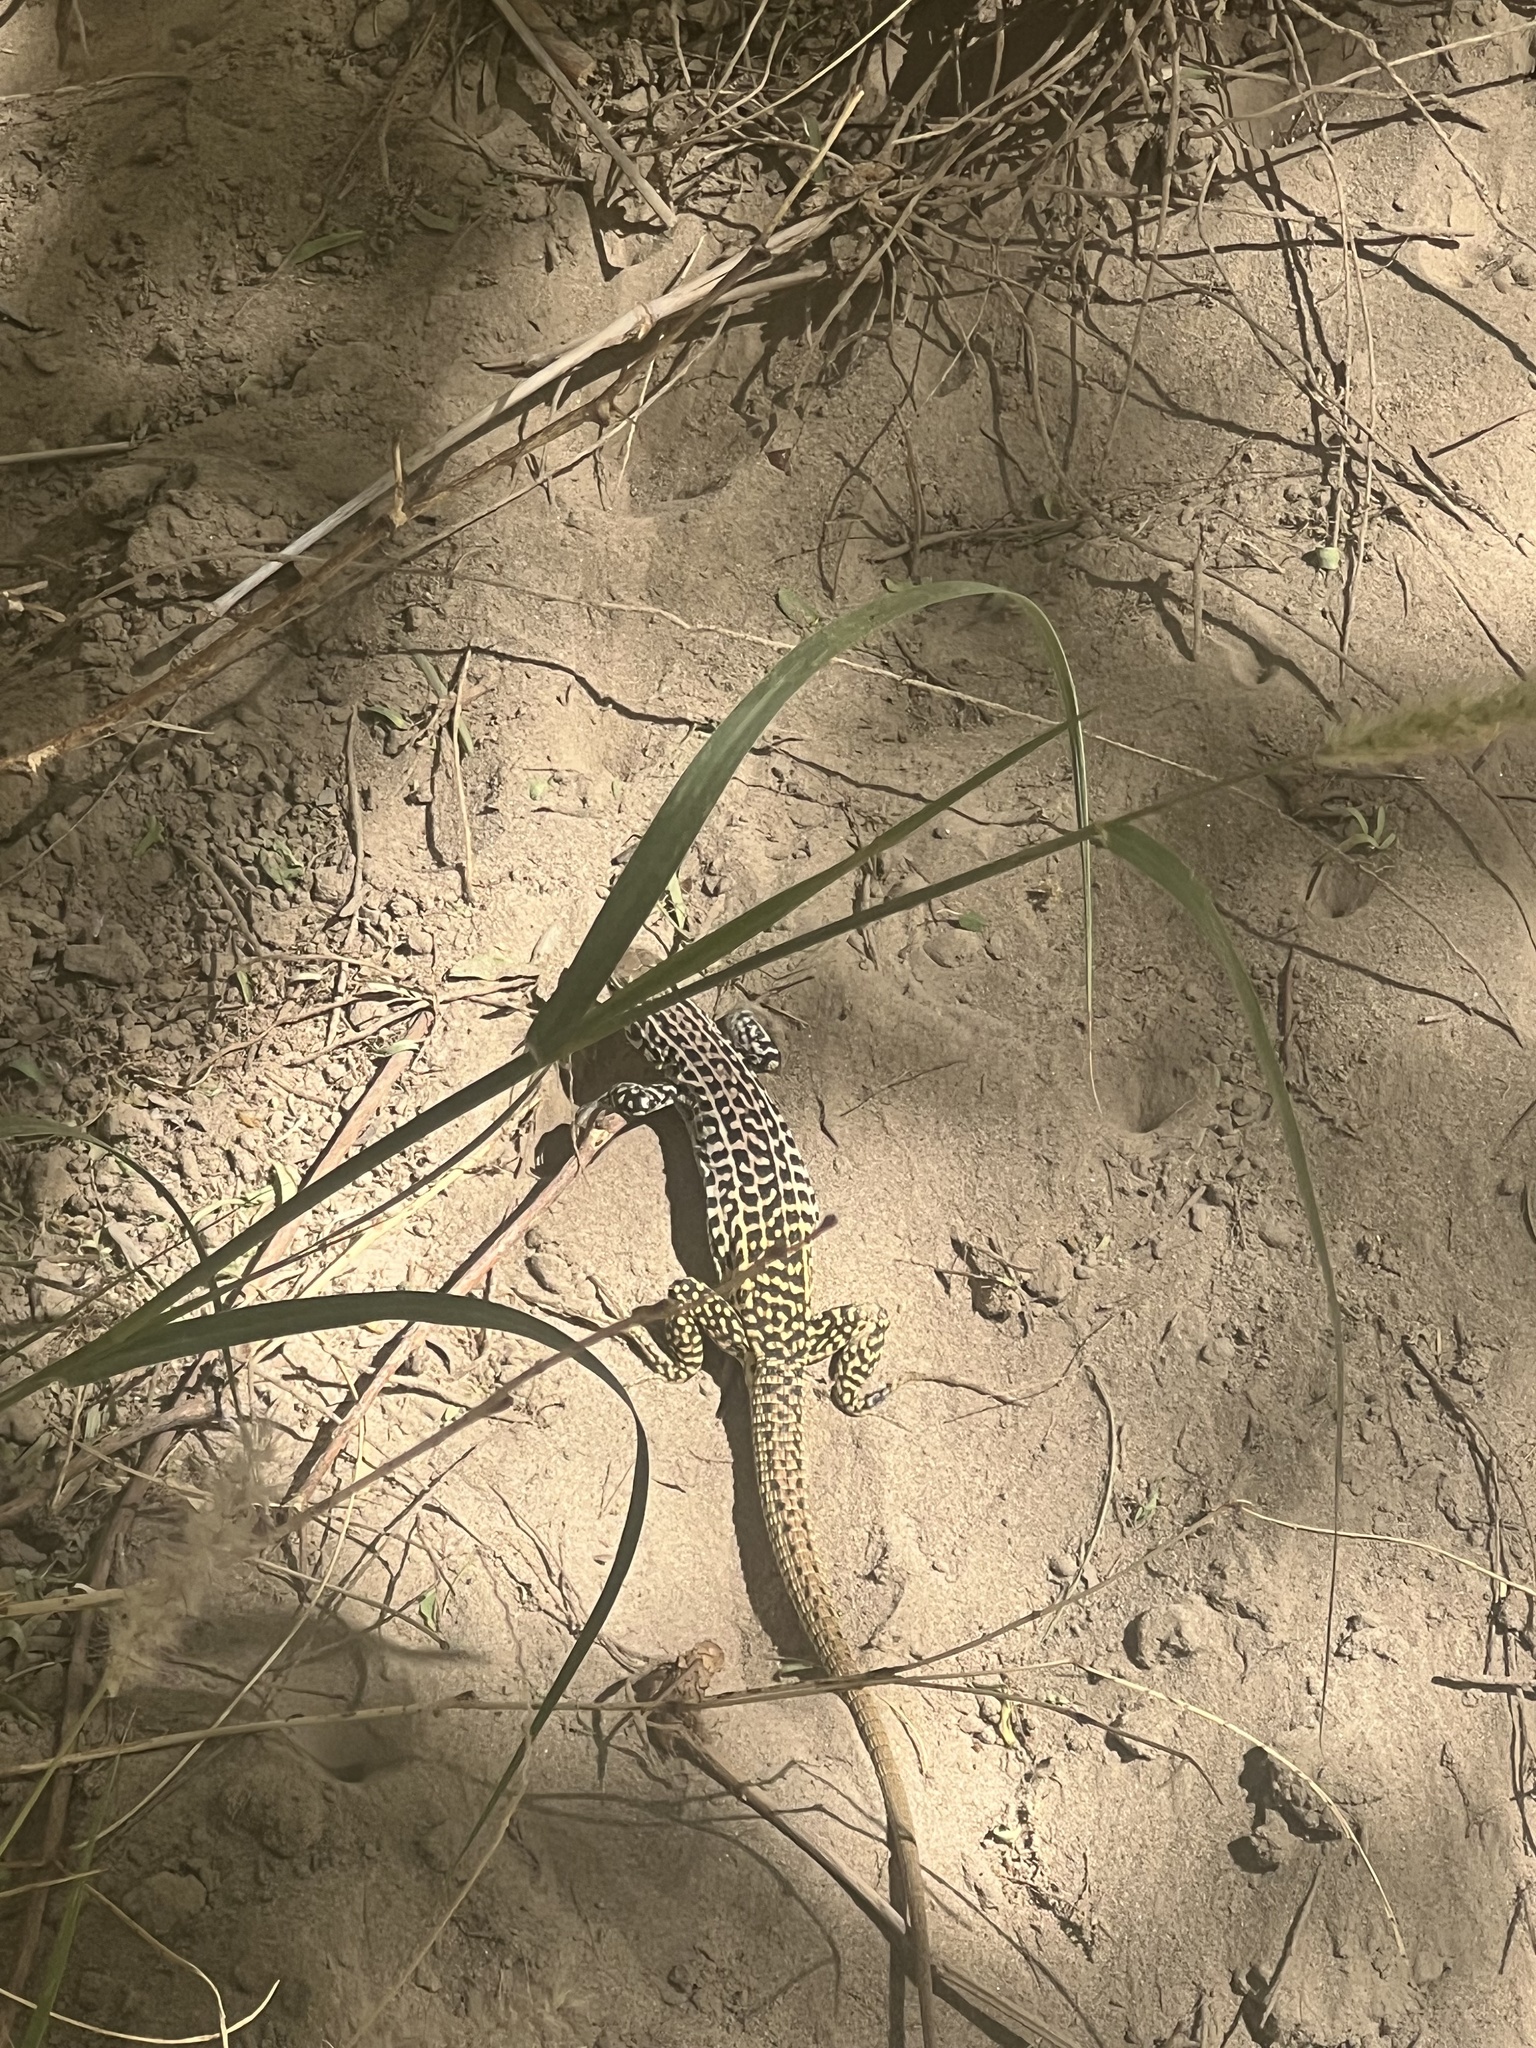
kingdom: Animalia
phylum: Chordata
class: Squamata
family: Teiidae
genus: Aspidoscelis
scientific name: Aspidoscelis tesselatus
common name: Common checkered whiptail [tesselata]
